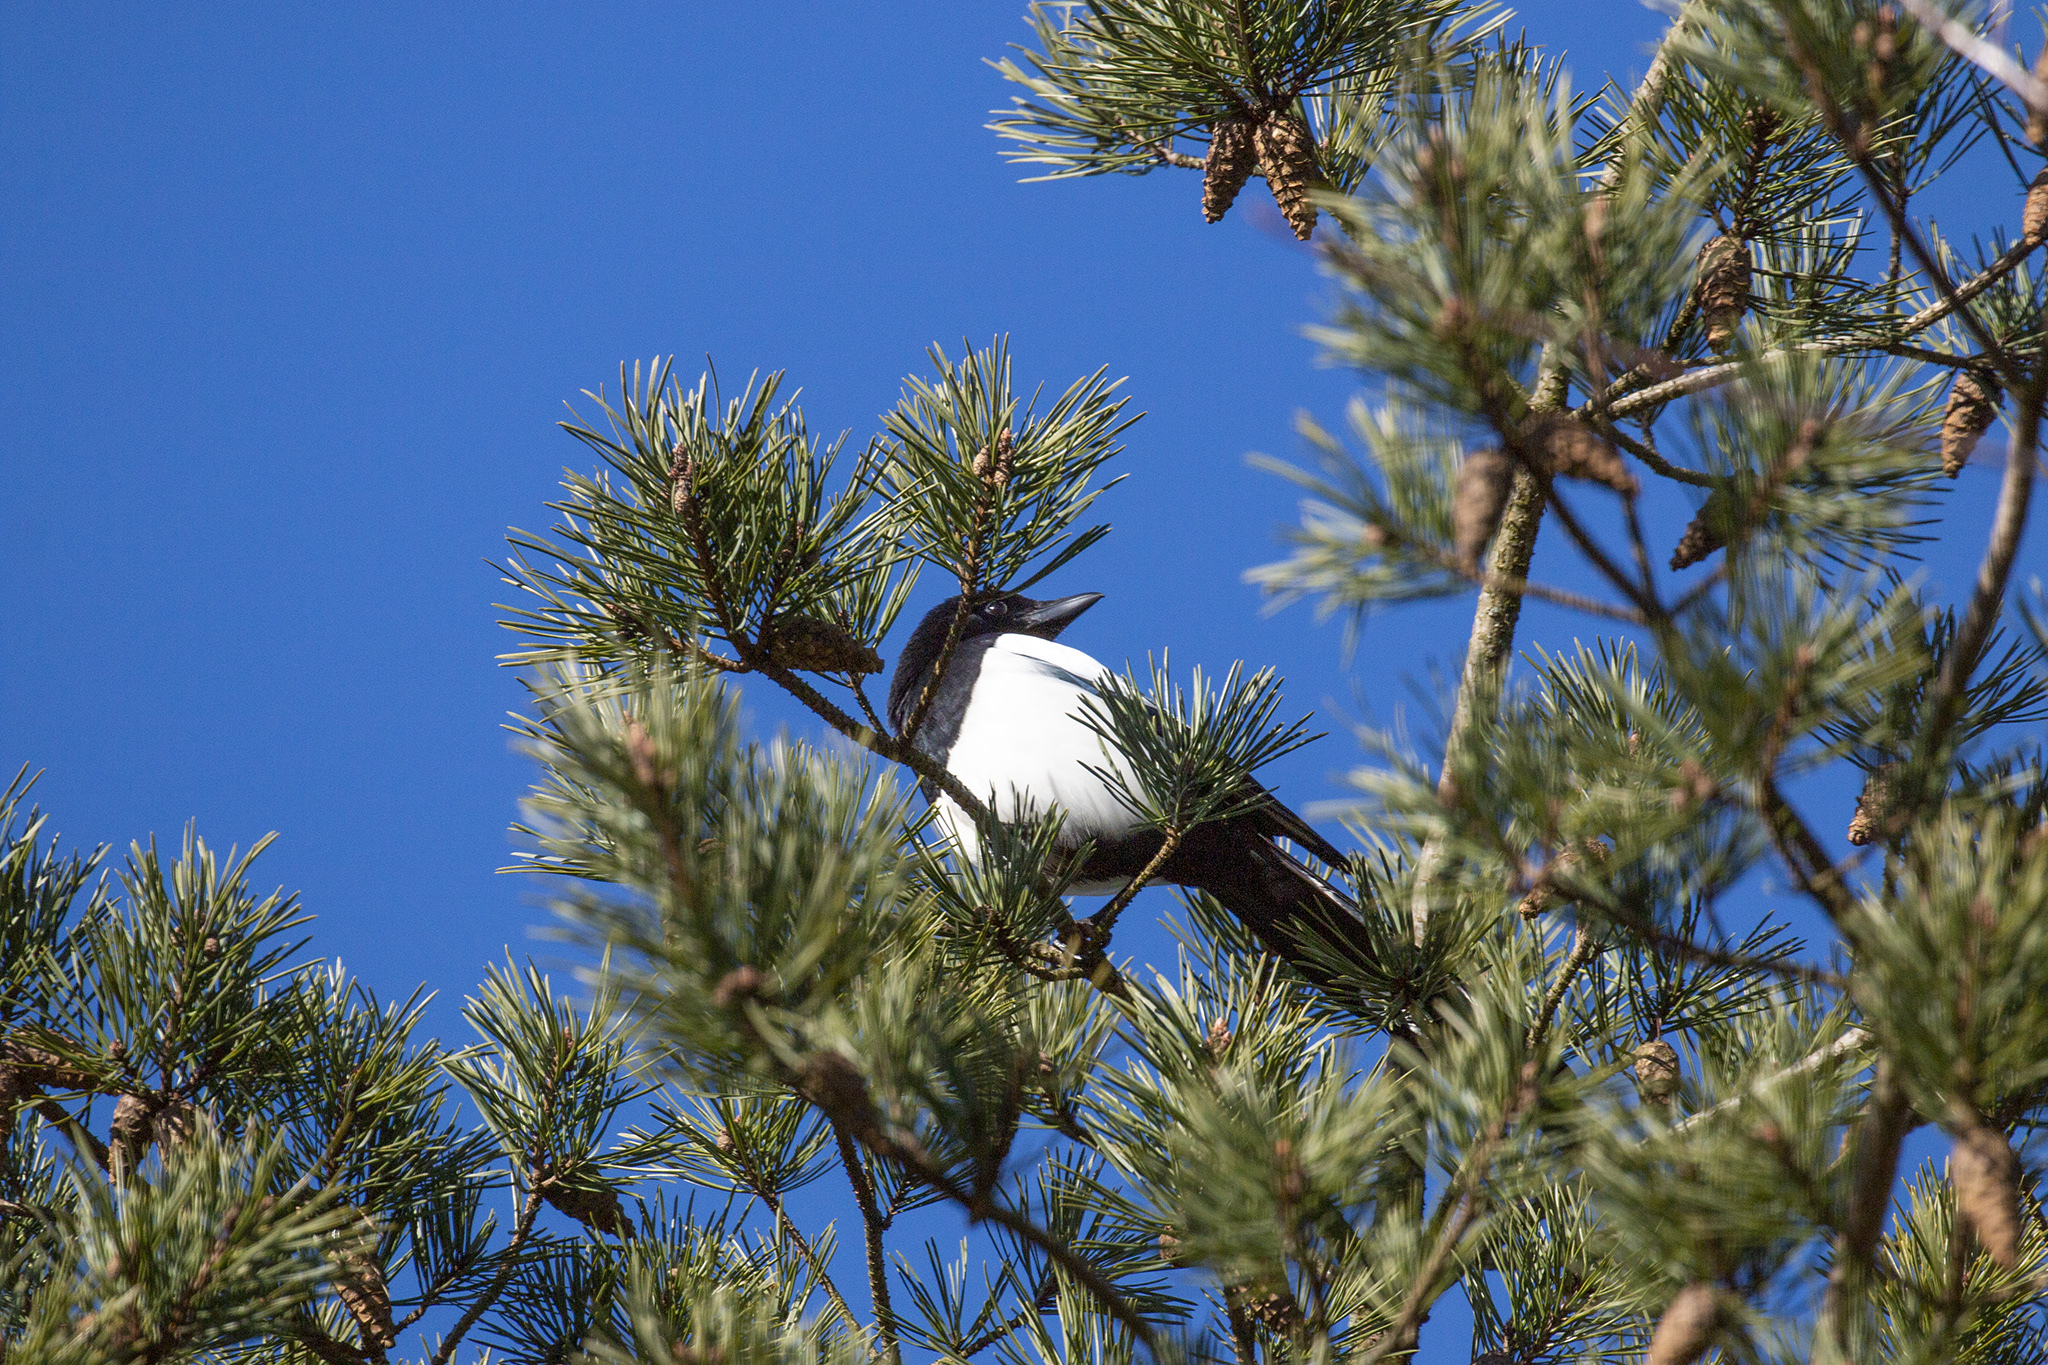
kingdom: Animalia
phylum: Chordata
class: Aves
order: Passeriformes
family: Corvidae
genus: Pica
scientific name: Pica pica
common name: Eurasian magpie
